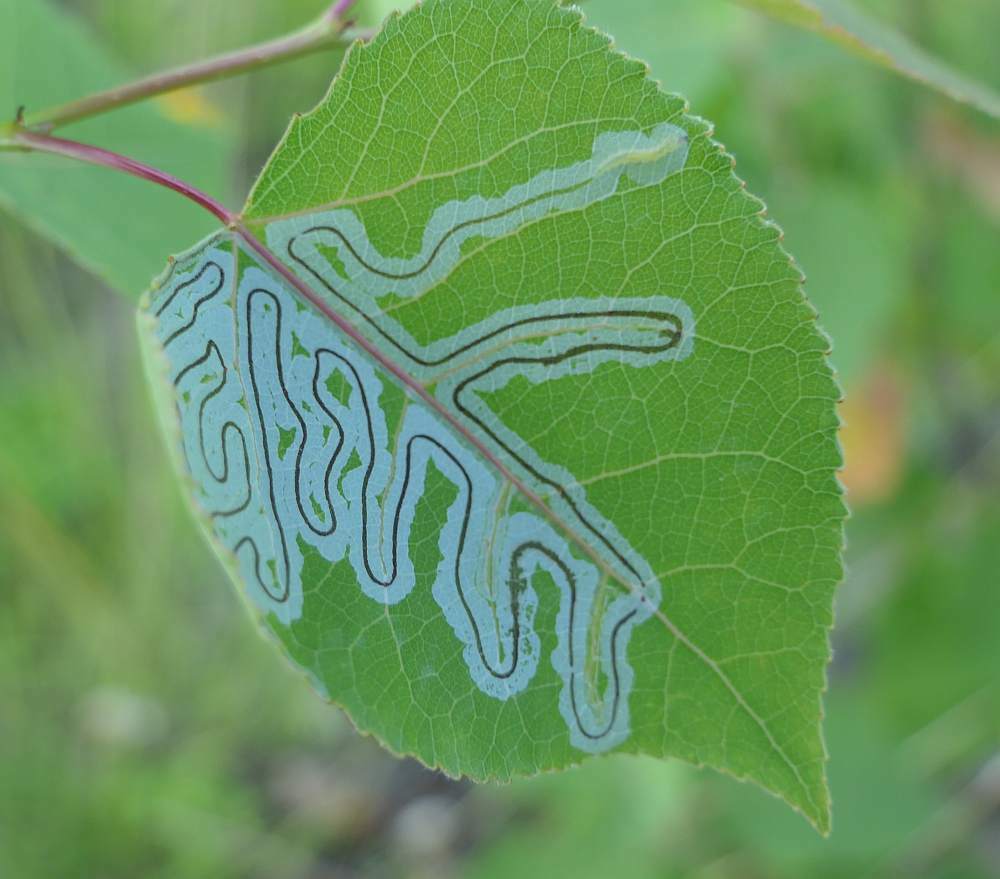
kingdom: Animalia
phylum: Arthropoda
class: Insecta
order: Lepidoptera
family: Gracillariidae
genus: Phyllocnistis
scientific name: Phyllocnistis populiella
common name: Aspen serpentine leafminer moth
